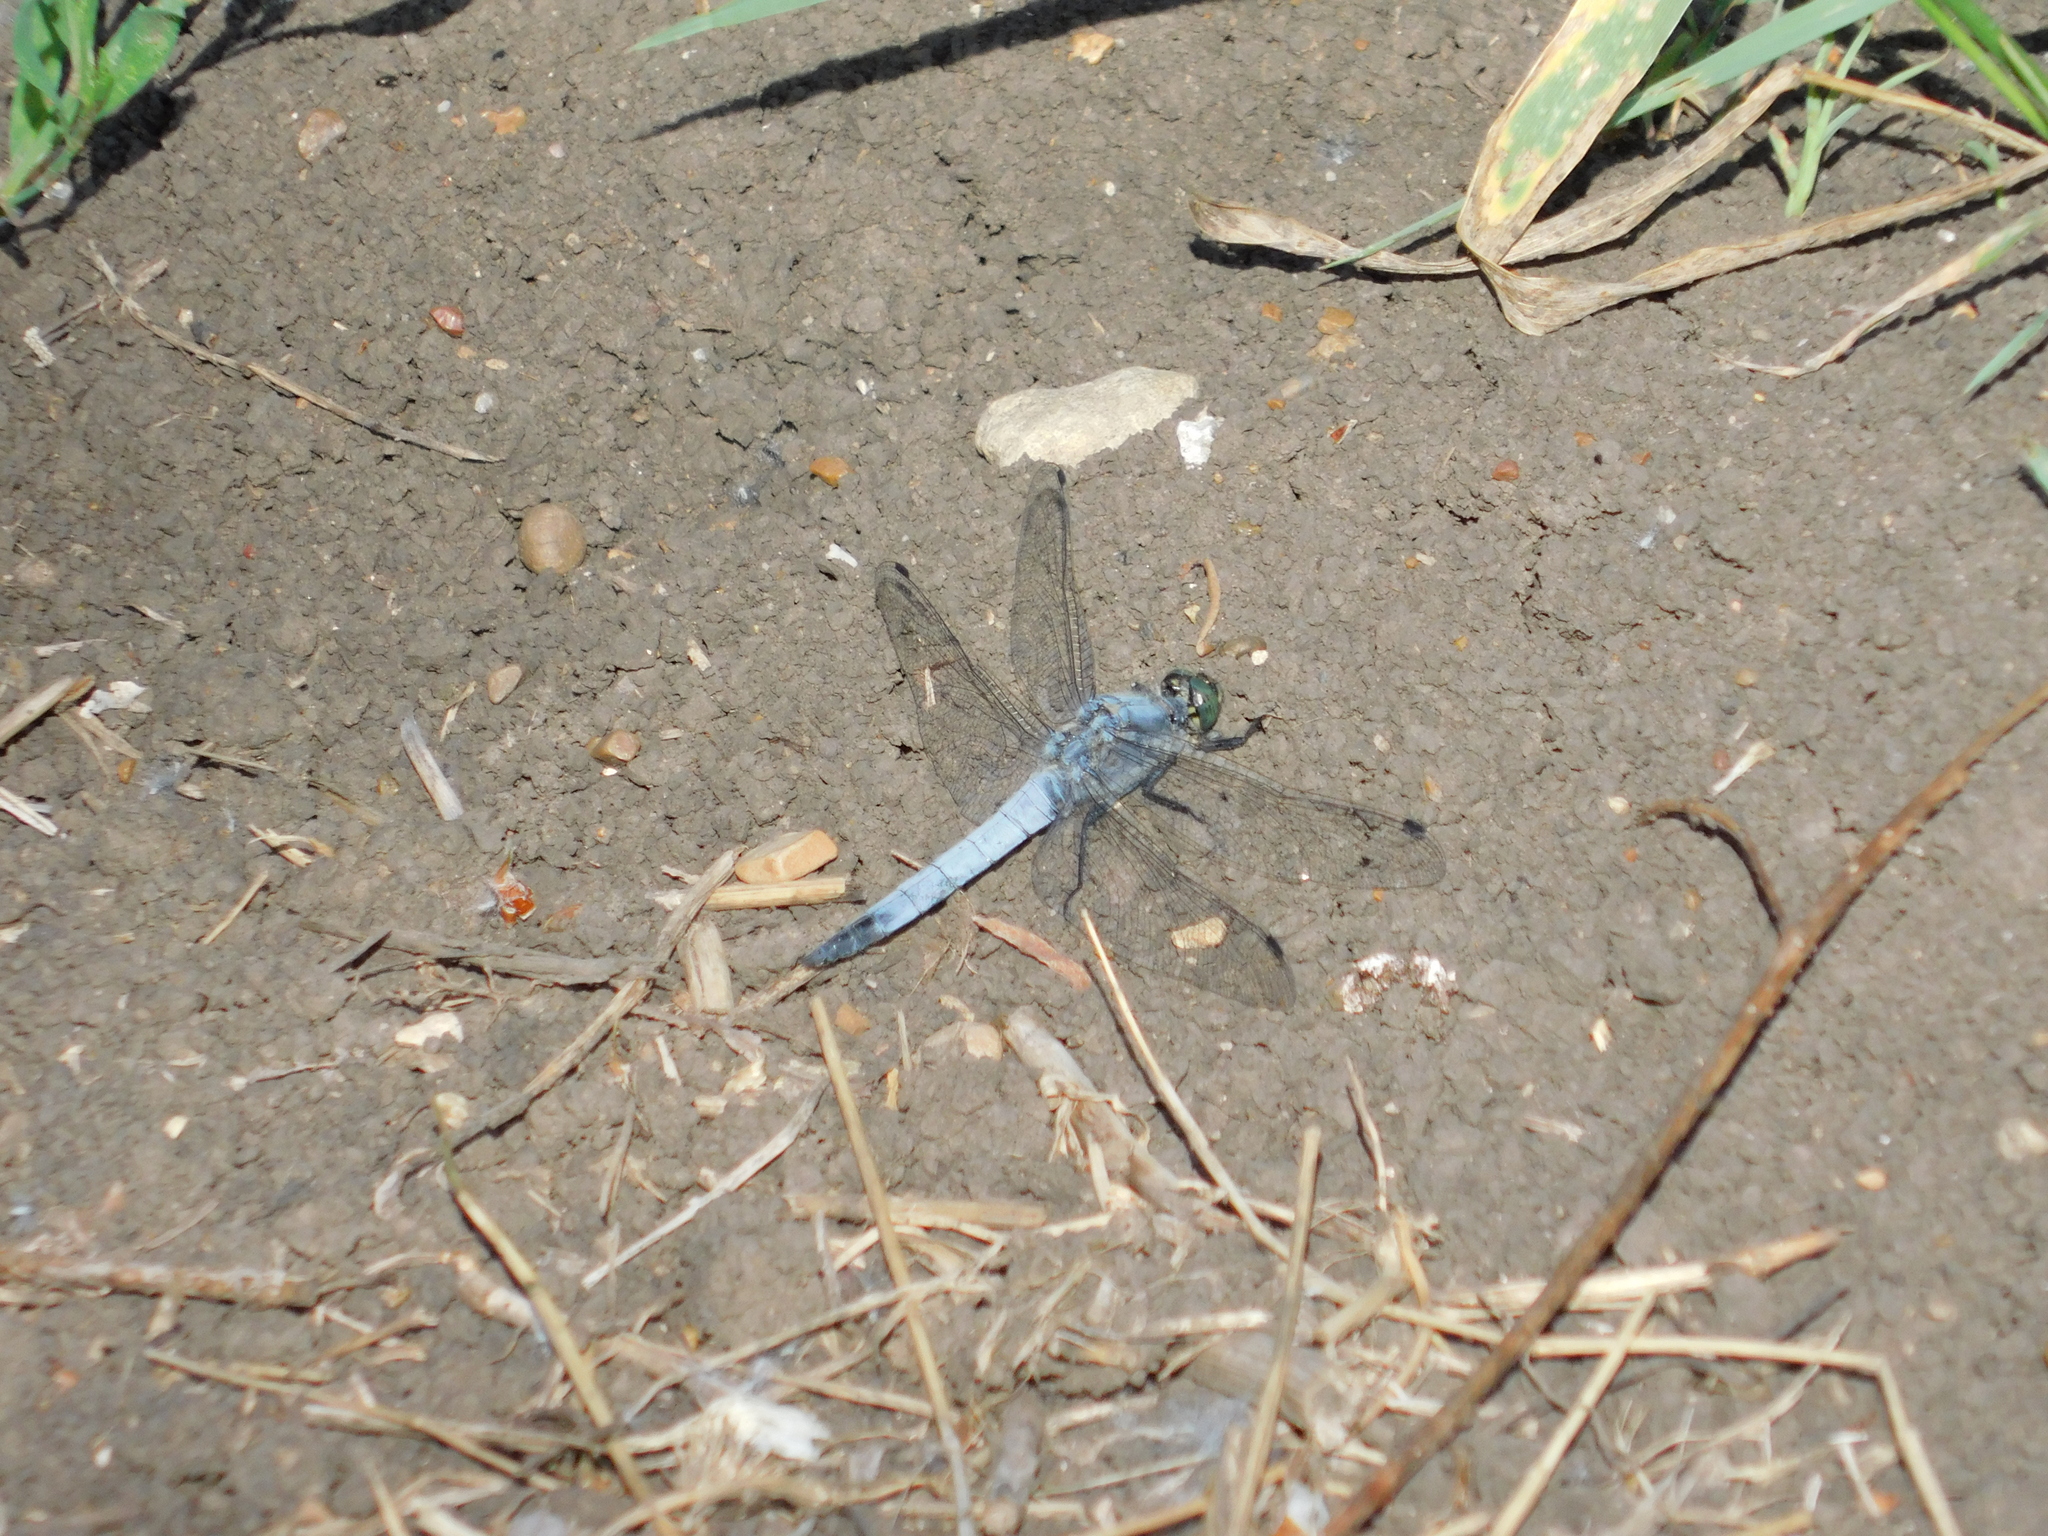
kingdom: Animalia
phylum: Arthropoda
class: Insecta
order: Odonata
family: Libellulidae
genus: Orthetrum
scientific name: Orthetrum cancellatum
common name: Black-tailed skimmer
